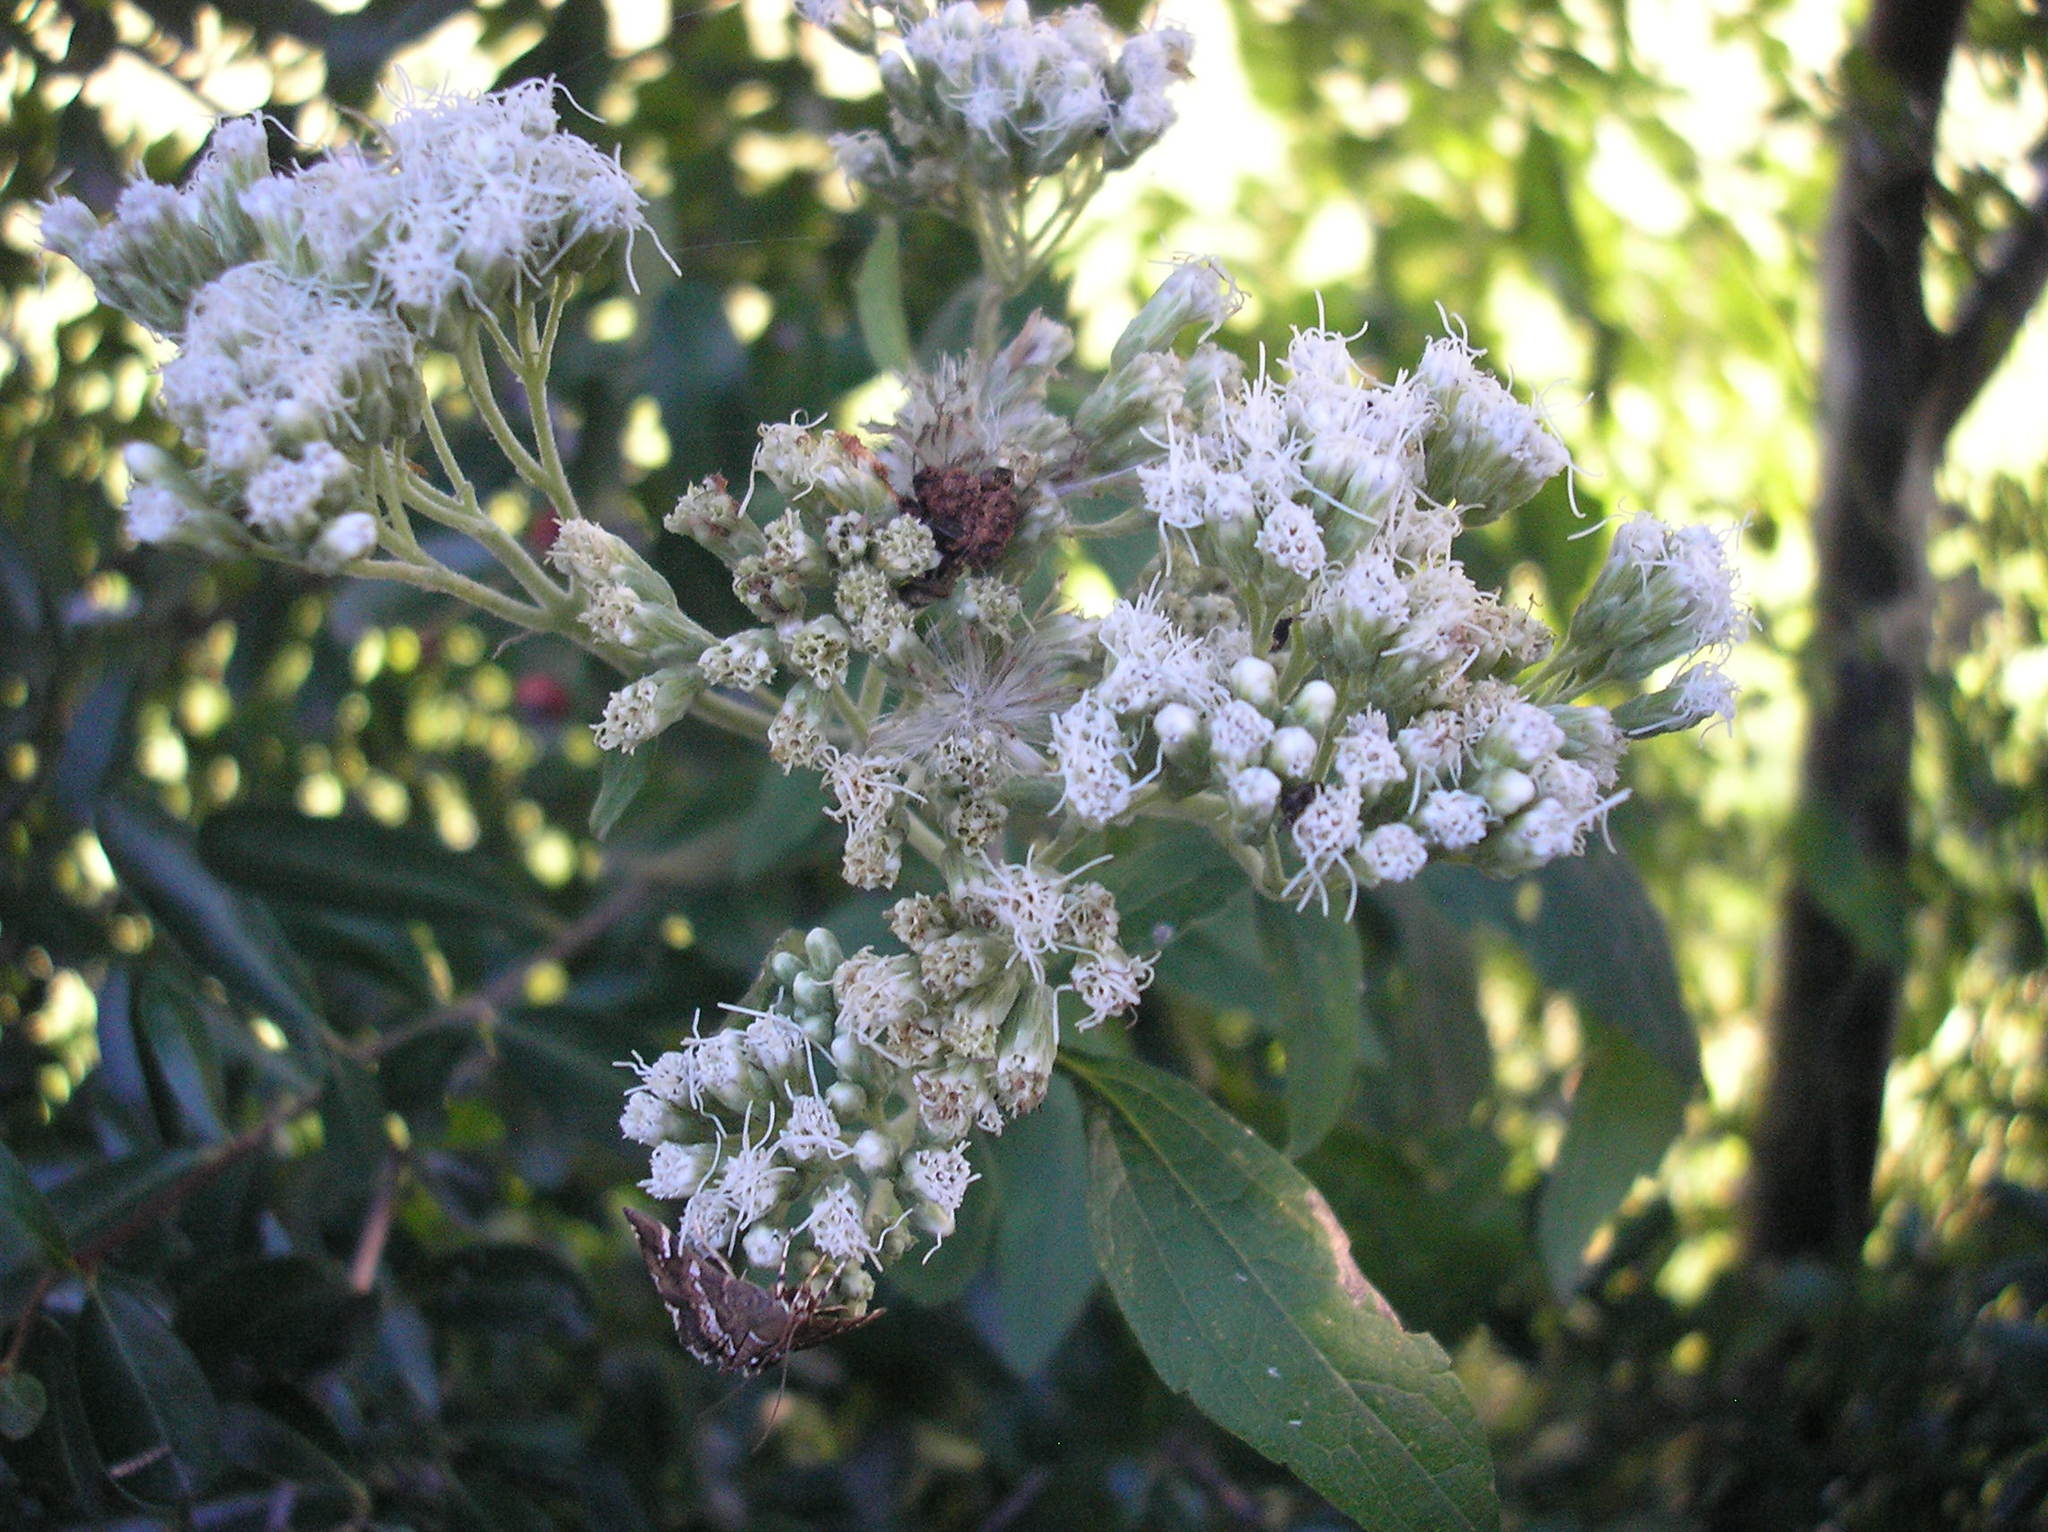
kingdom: Animalia
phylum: Arthropoda
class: Insecta
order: Lepidoptera
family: Crambidae
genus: Hymenia
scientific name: Hymenia perspectalis
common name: Spotted beet webworm
